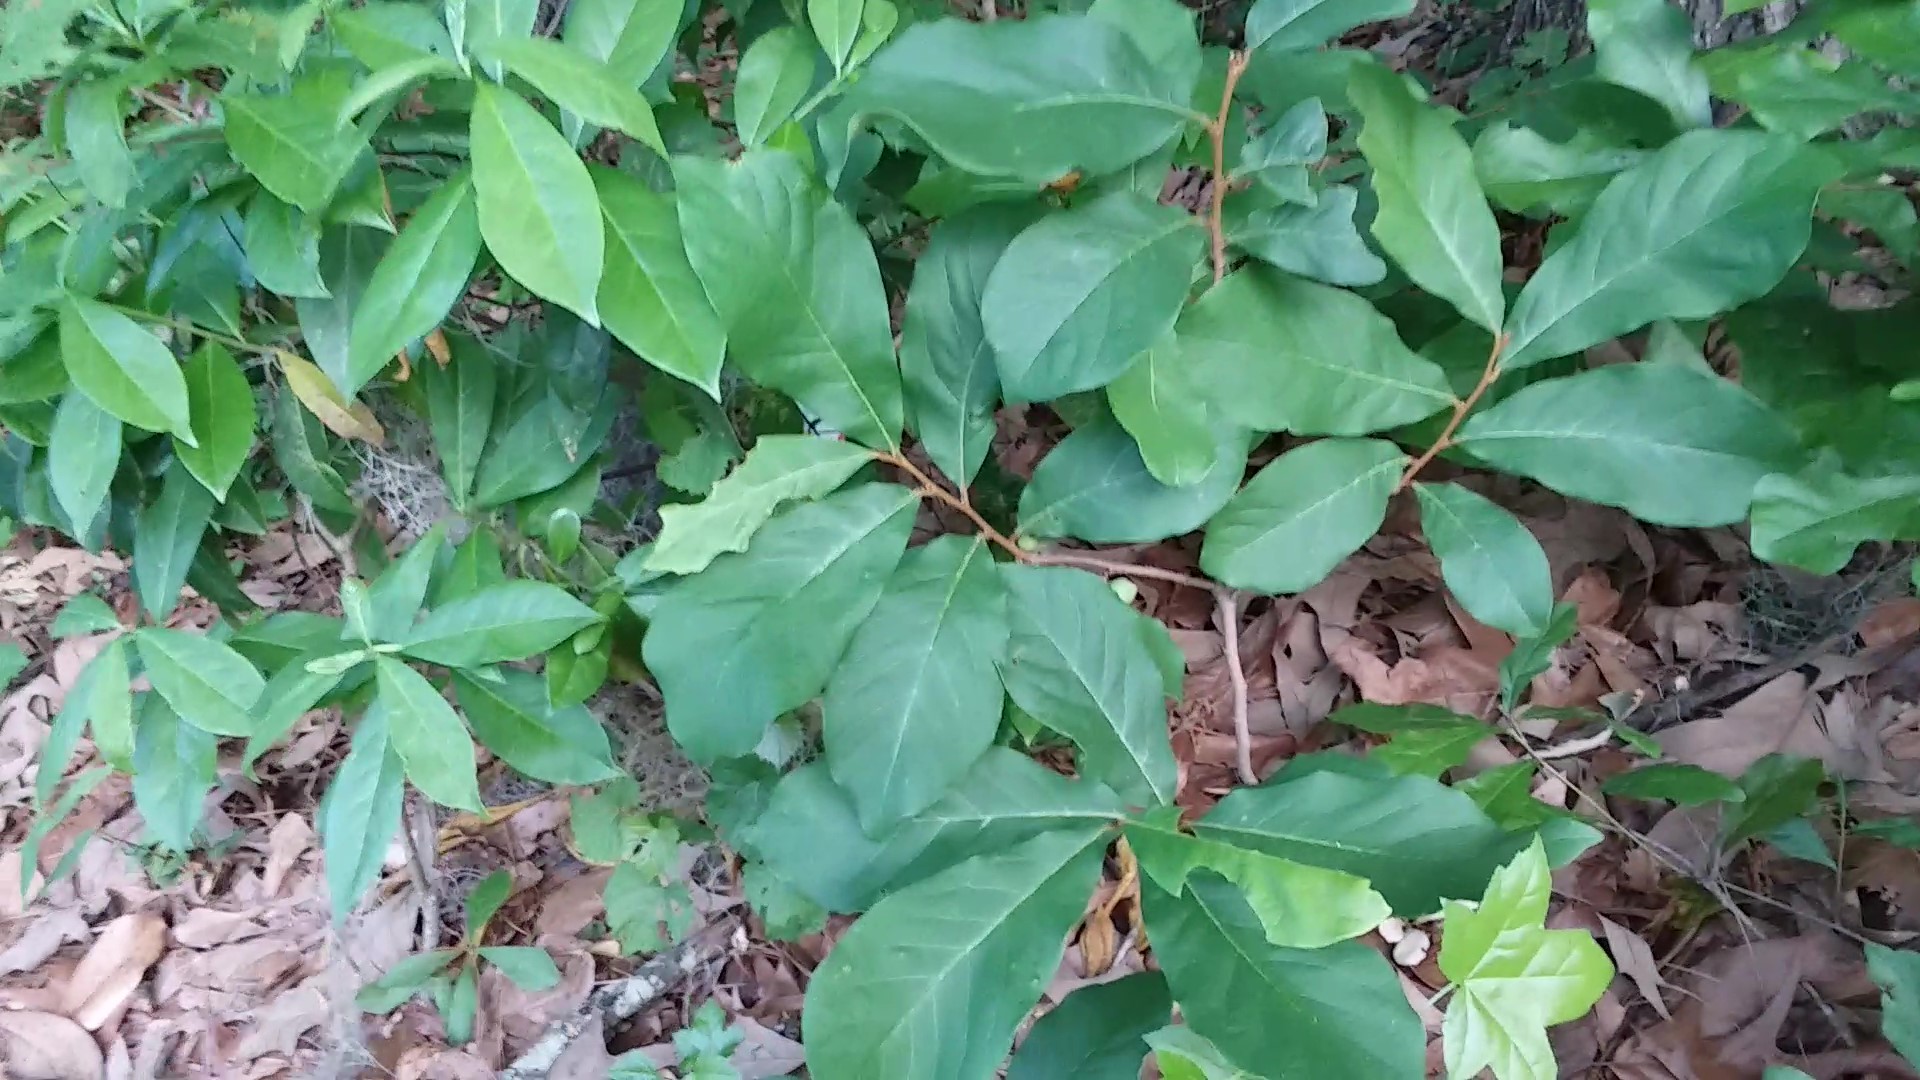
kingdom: Plantae
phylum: Tracheophyta
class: Magnoliopsida
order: Magnoliales
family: Annonaceae
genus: Asimina
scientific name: Asimina parviflora
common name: Dwarf pawpaw
